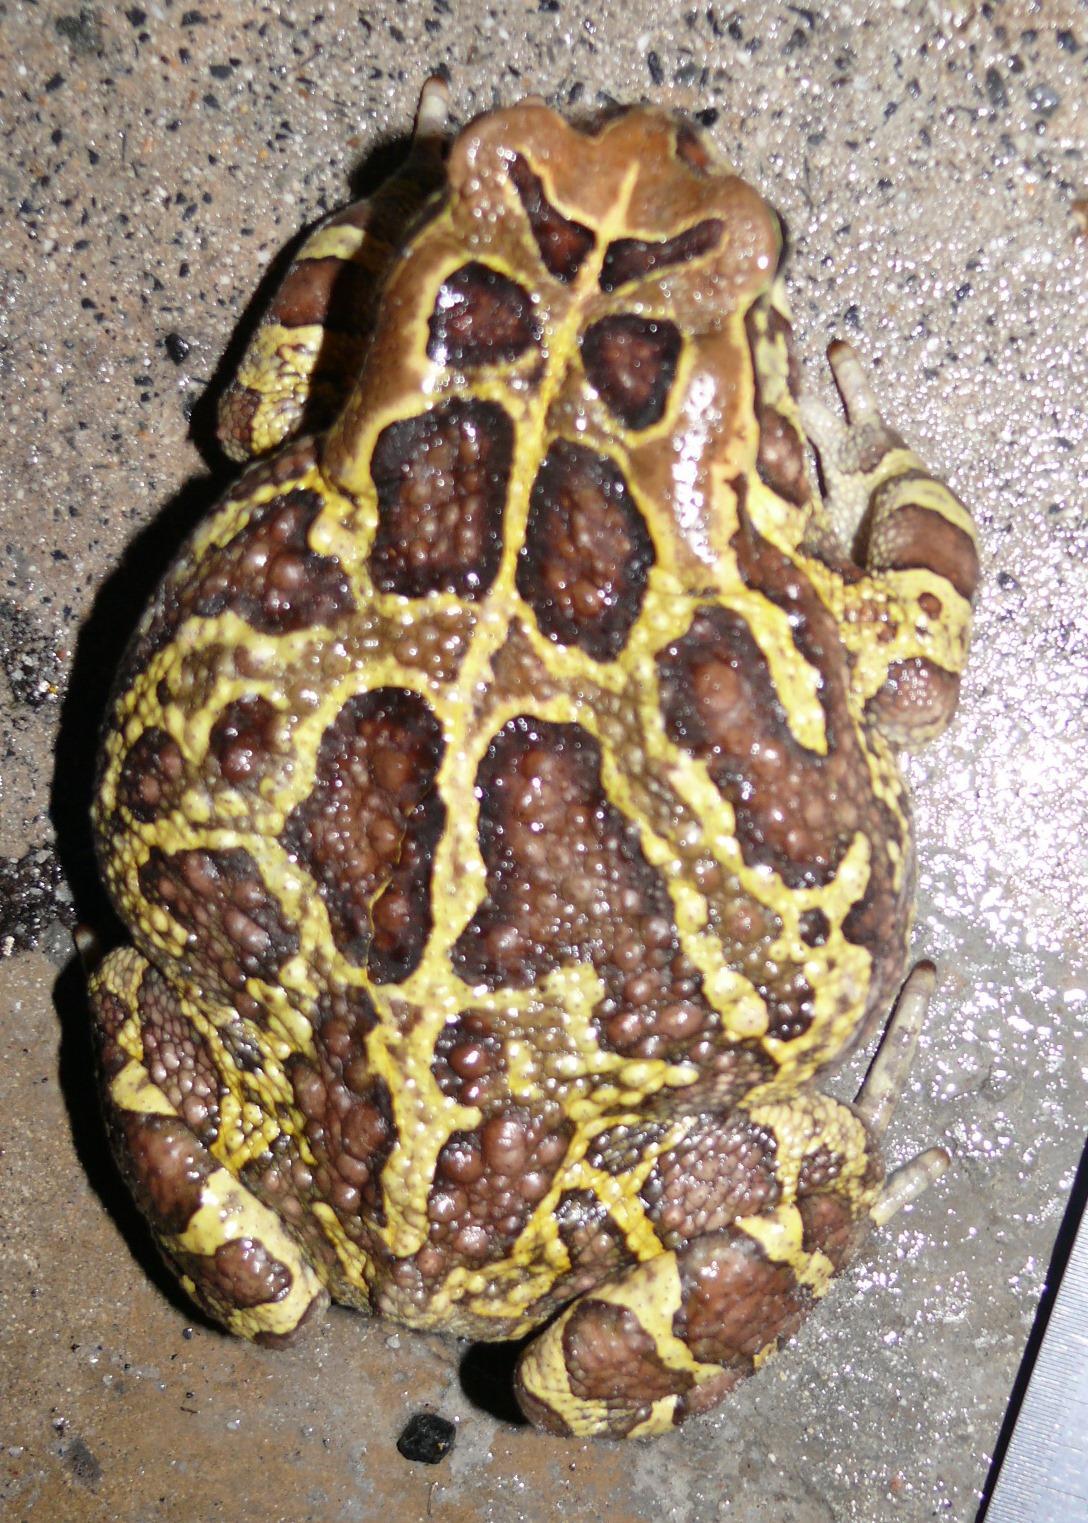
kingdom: Animalia
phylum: Chordata
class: Amphibia
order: Anura
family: Bufonidae
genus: Sclerophrys
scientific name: Sclerophrys pantherina
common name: Panther toad
